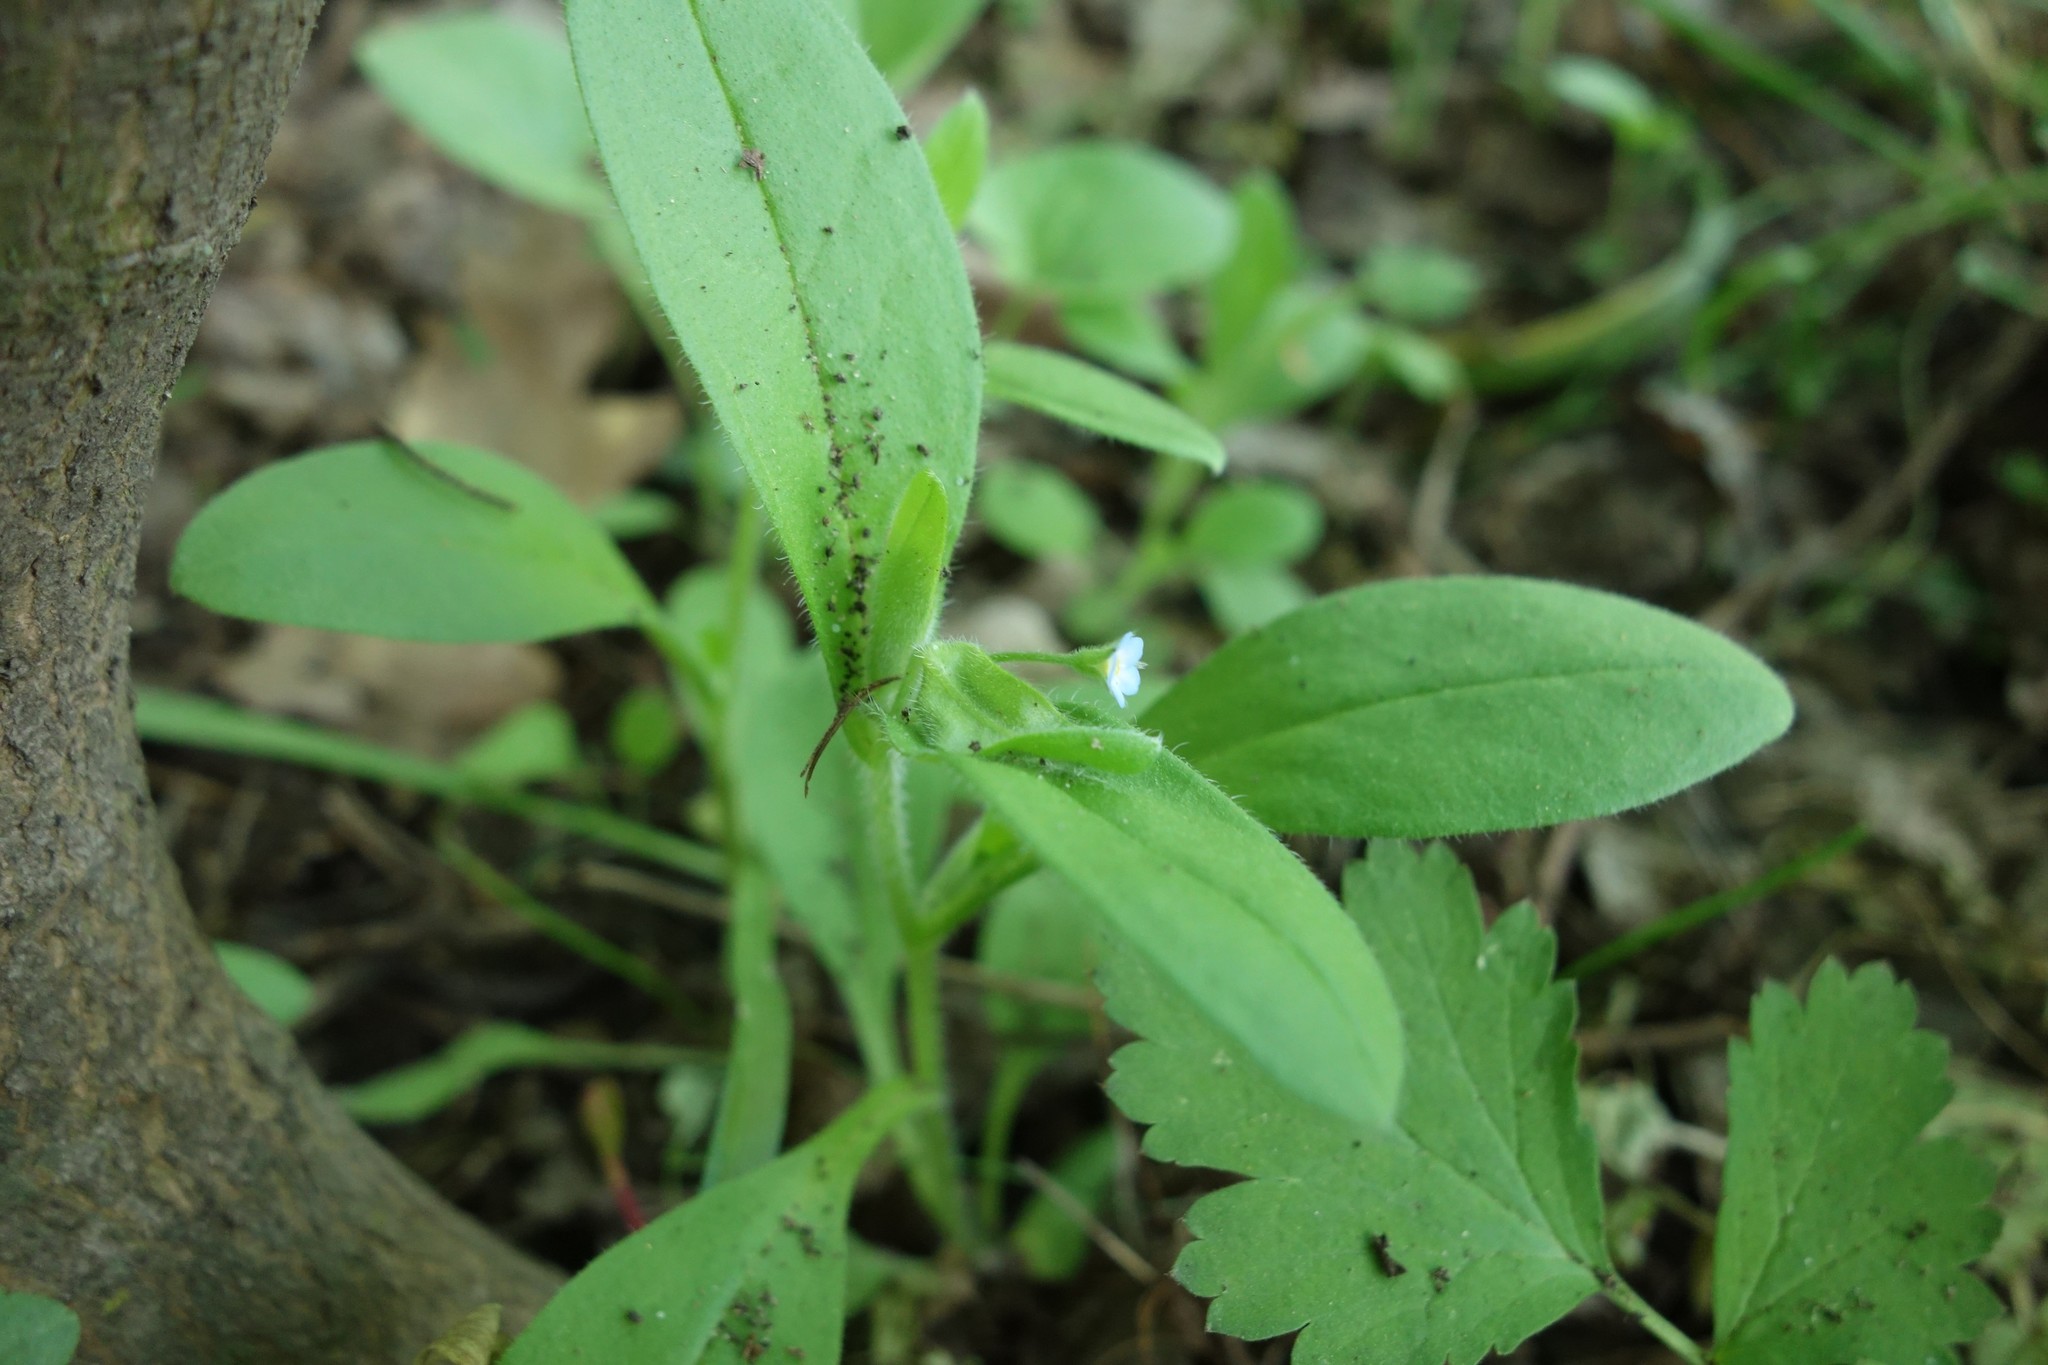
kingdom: Plantae
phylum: Tracheophyta
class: Magnoliopsida
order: Boraginales
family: Boraginaceae
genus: Myosotis
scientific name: Myosotis sparsiflora
